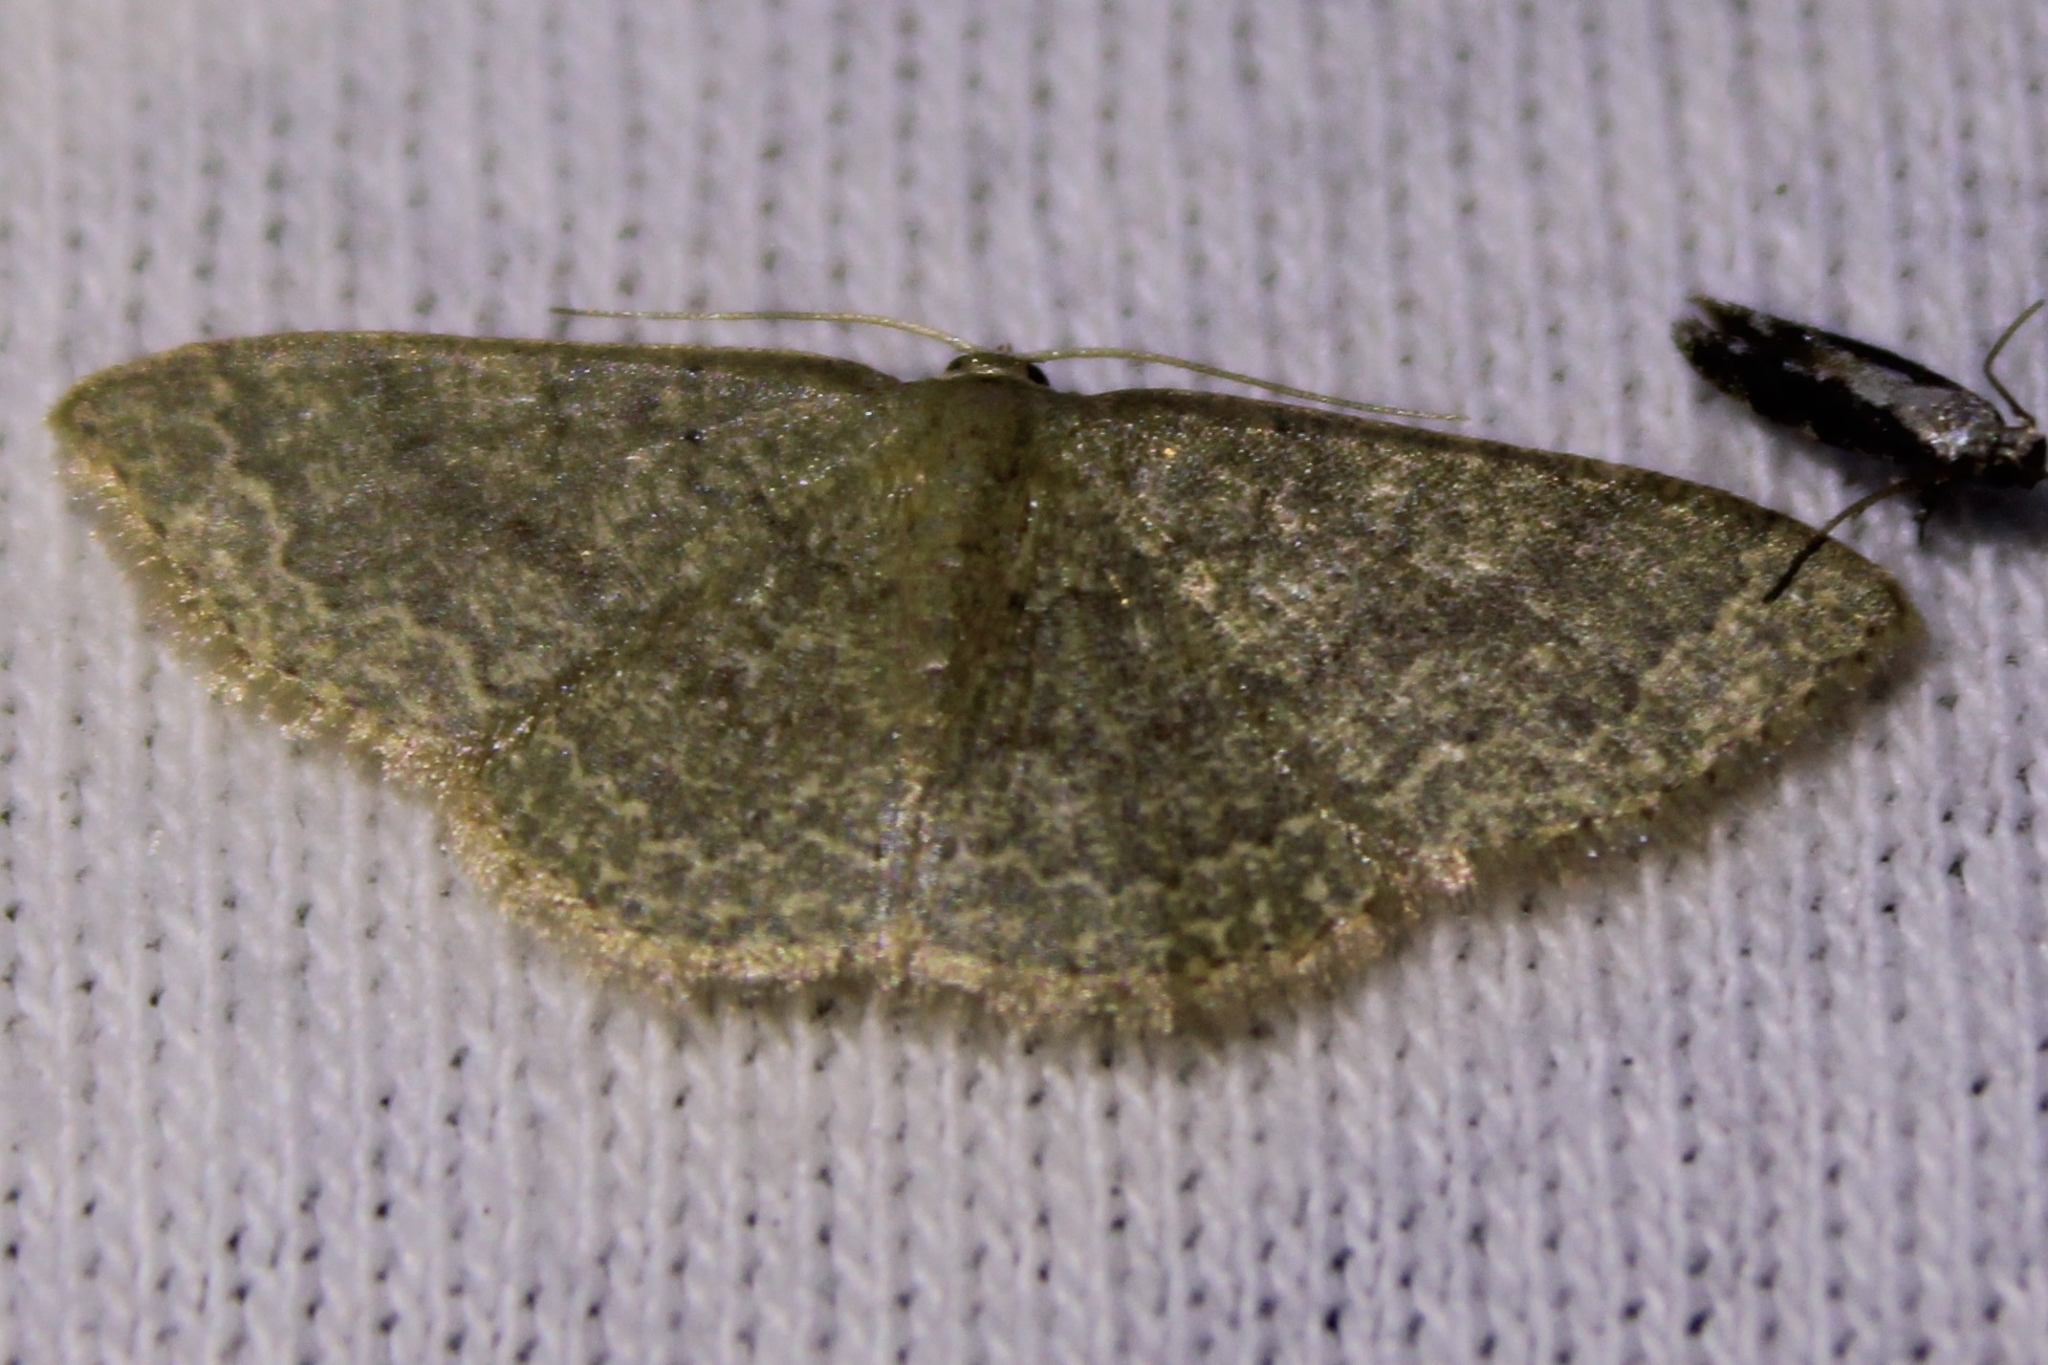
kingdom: Animalia
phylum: Arthropoda
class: Insecta
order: Lepidoptera
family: Geometridae
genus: Pleuroprucha
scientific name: Pleuroprucha insulsaria
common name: Common tan wave
